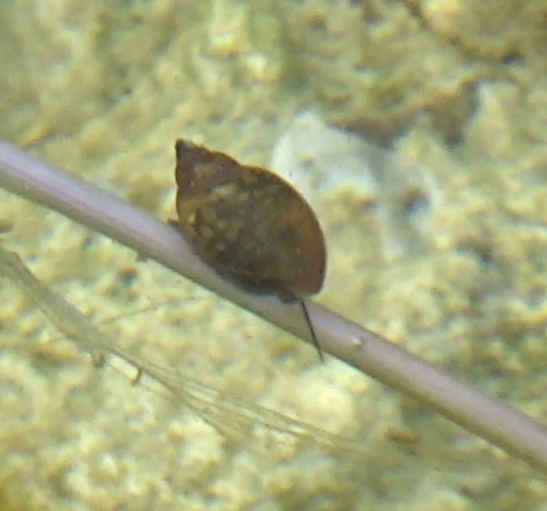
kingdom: Animalia
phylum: Mollusca
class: Gastropoda
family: Physidae
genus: Physella
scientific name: Physella acuta
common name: European physa
